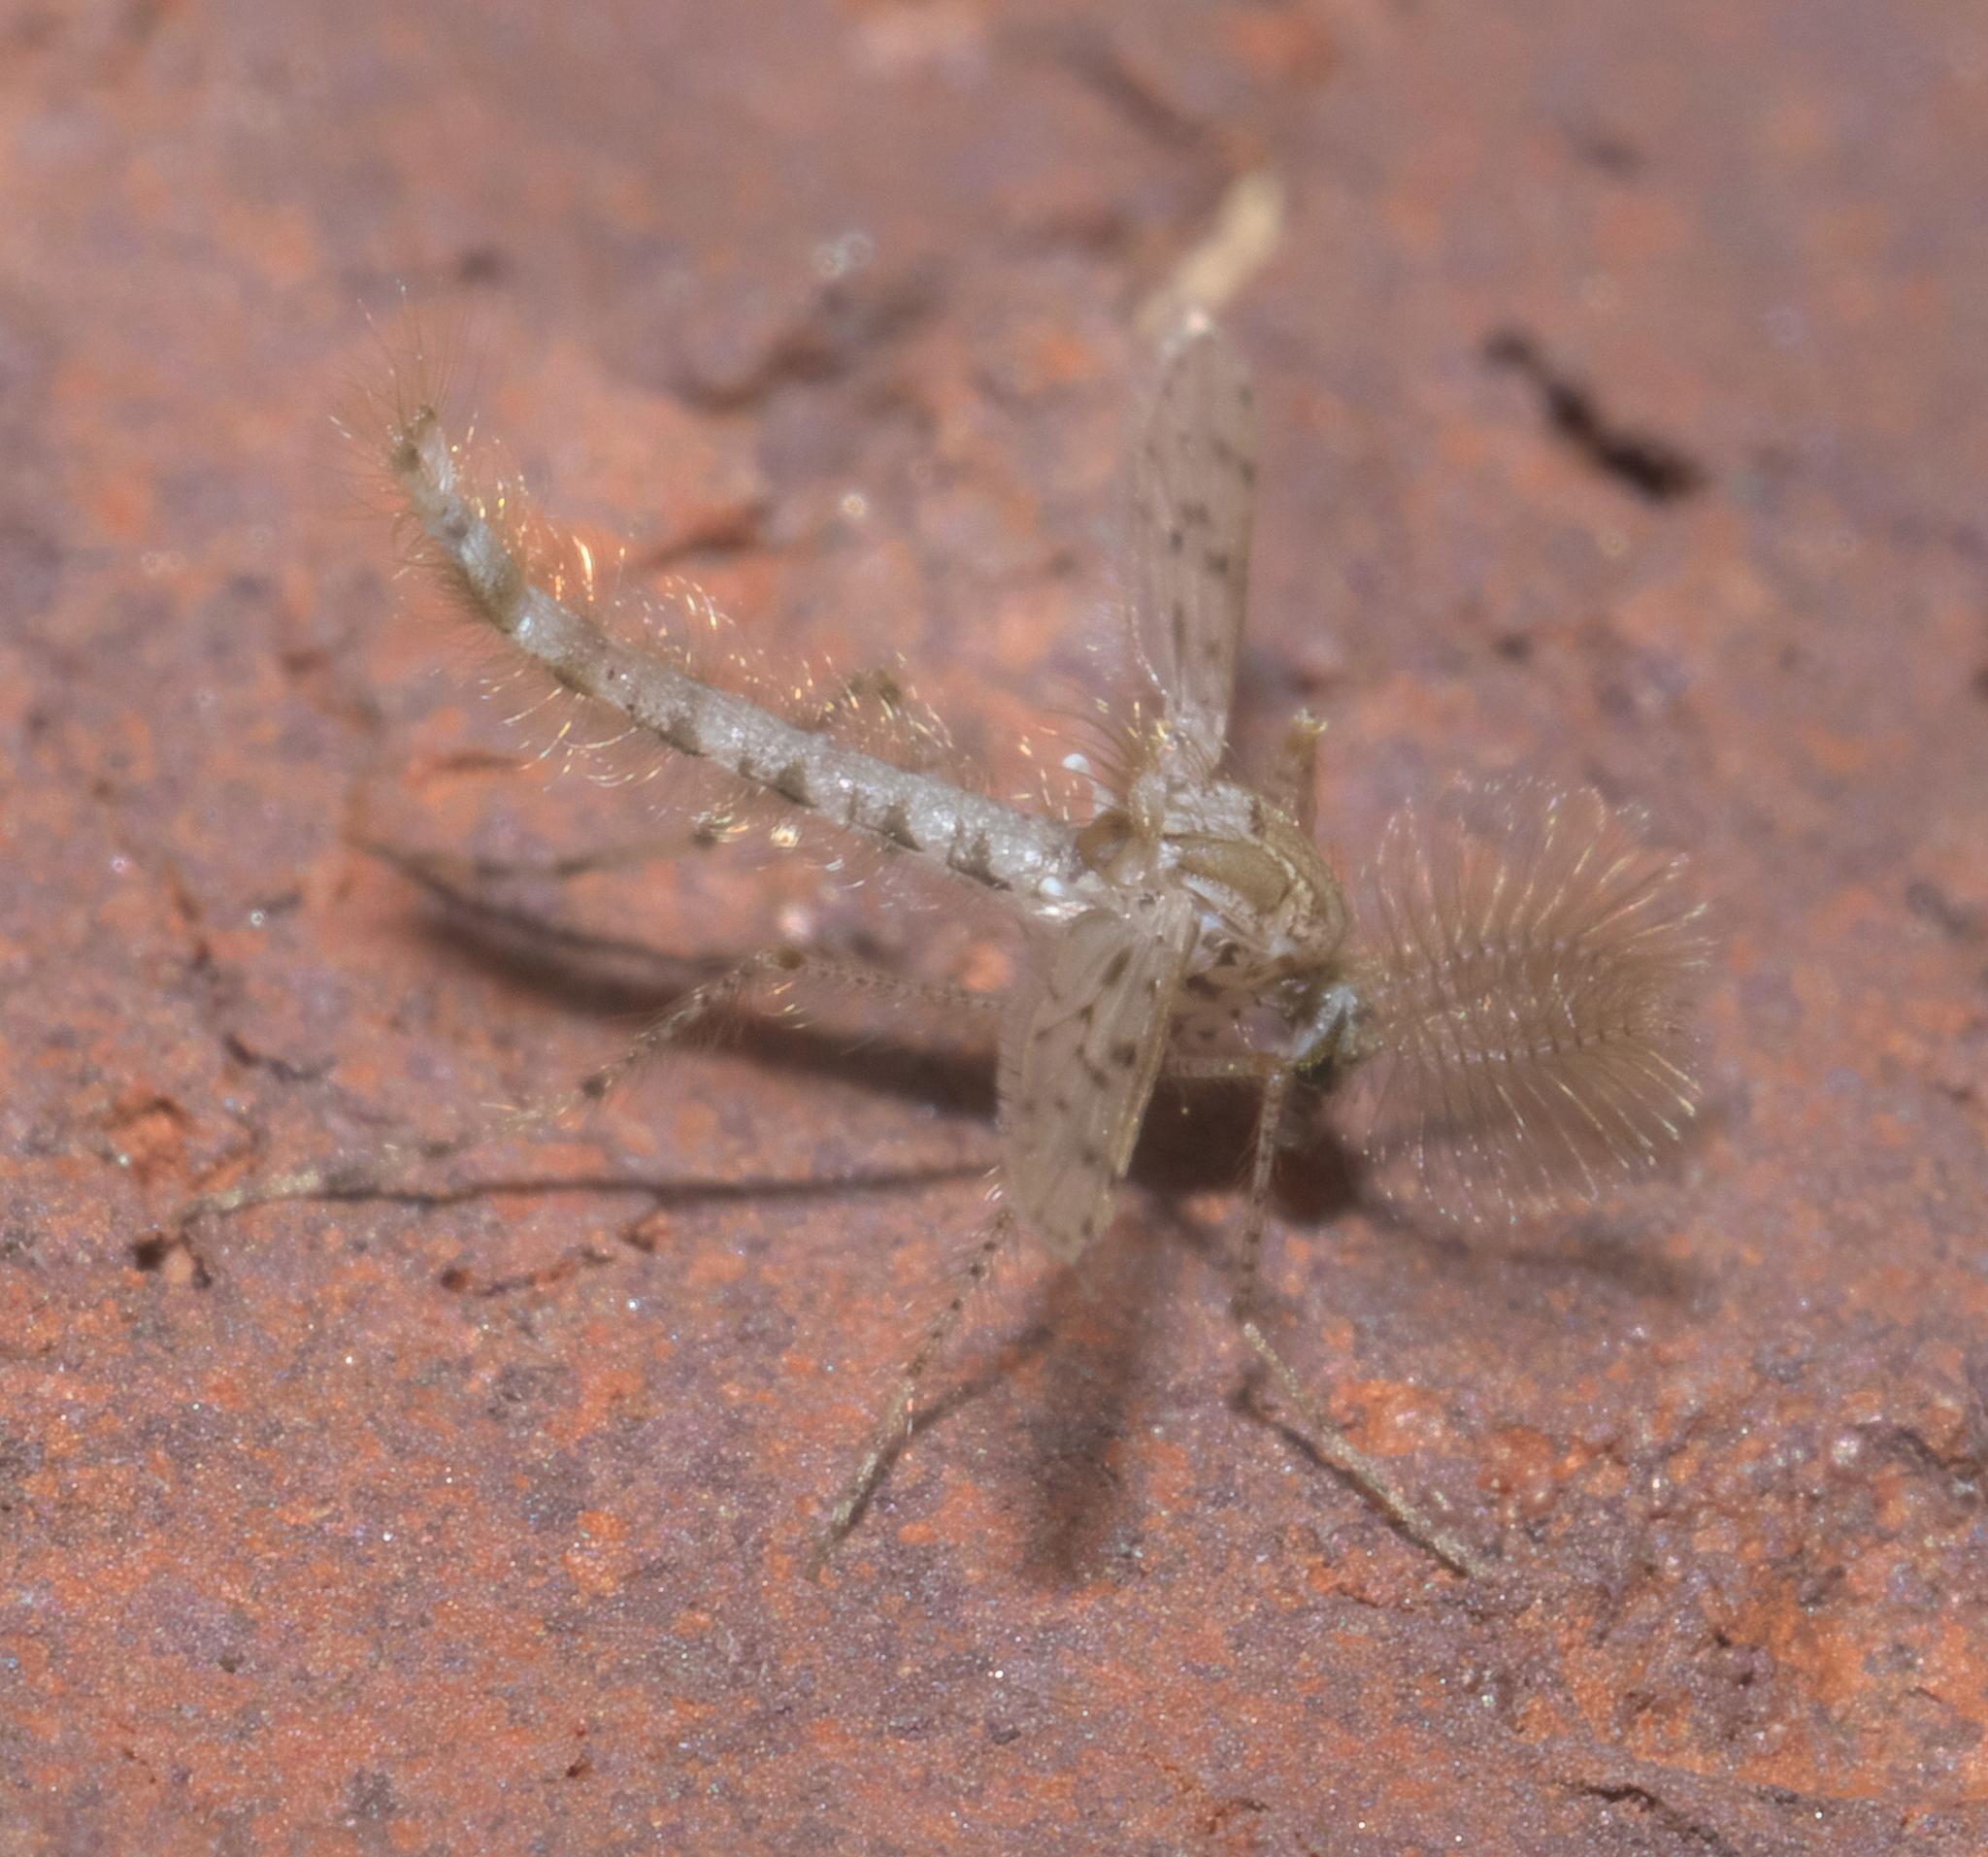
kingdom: Animalia
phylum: Arthropoda
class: Insecta
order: Diptera
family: Chaoboridae
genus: Chaoborus
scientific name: Chaoborus punctipennis
